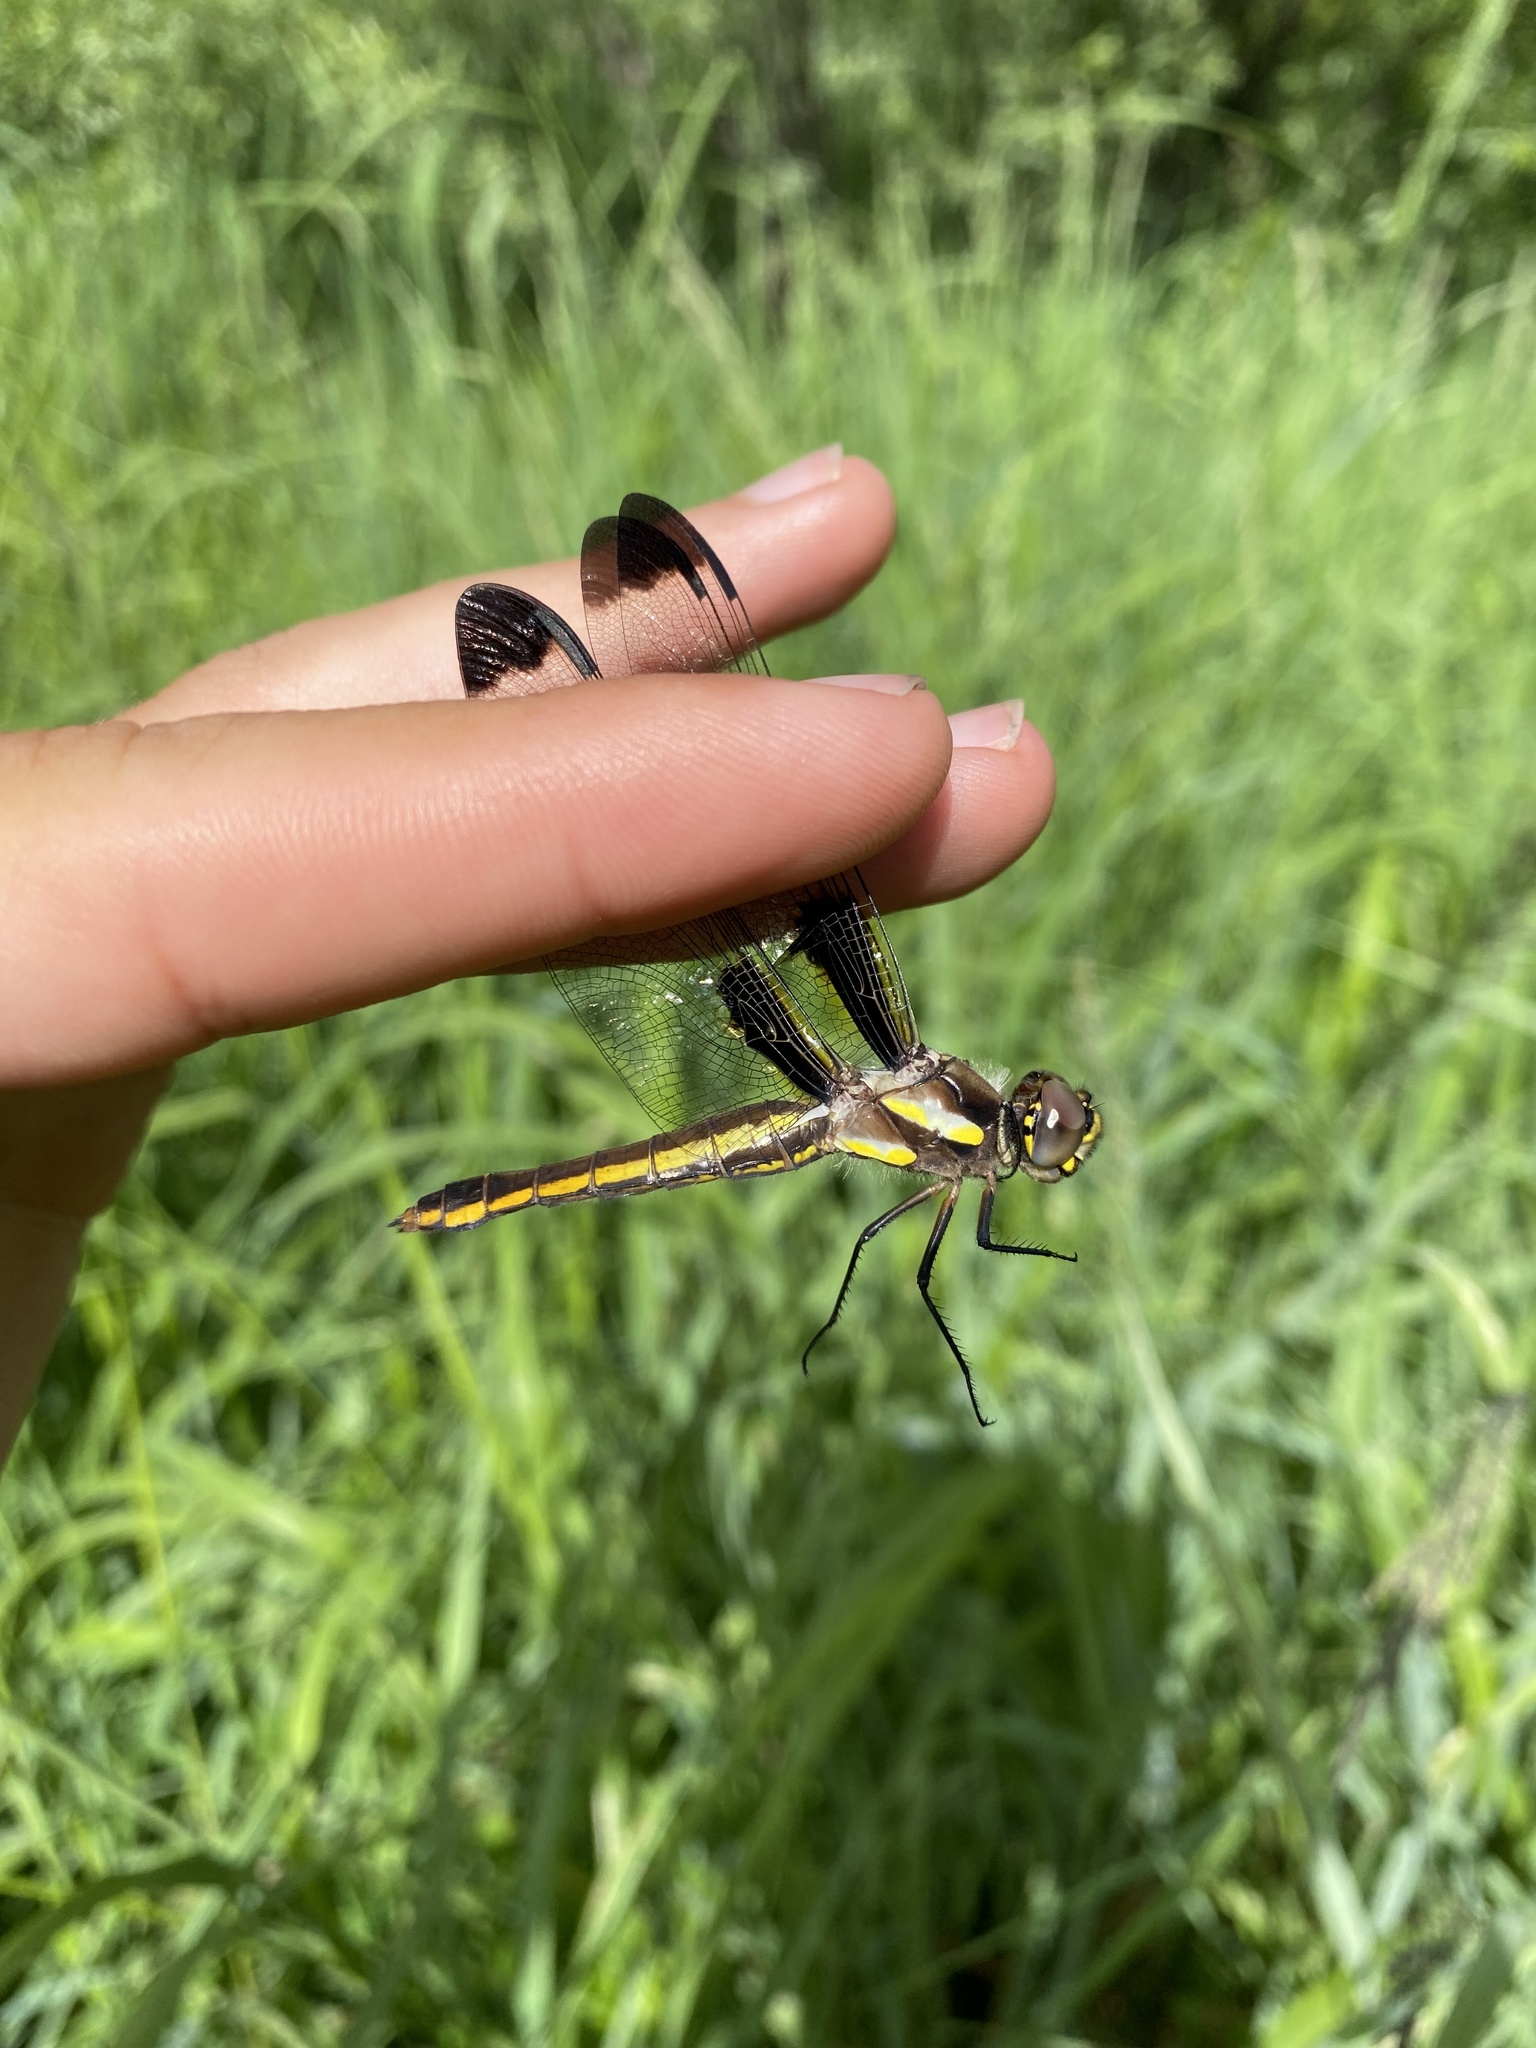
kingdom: Animalia
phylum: Arthropoda
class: Insecta
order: Odonata
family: Libellulidae
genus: Libellula
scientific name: Libellula pulchella
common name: Twelve-spotted skimmer
